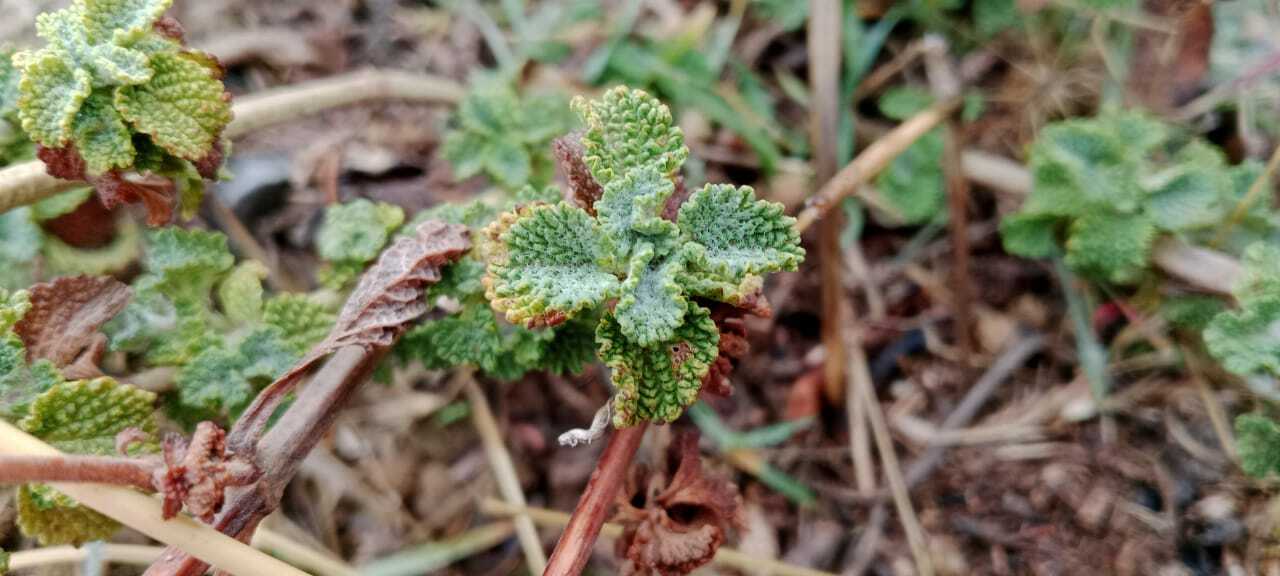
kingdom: Plantae
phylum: Tracheophyta
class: Magnoliopsida
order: Lamiales
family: Lamiaceae
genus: Marrubium
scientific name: Marrubium vulgare
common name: Horehound
